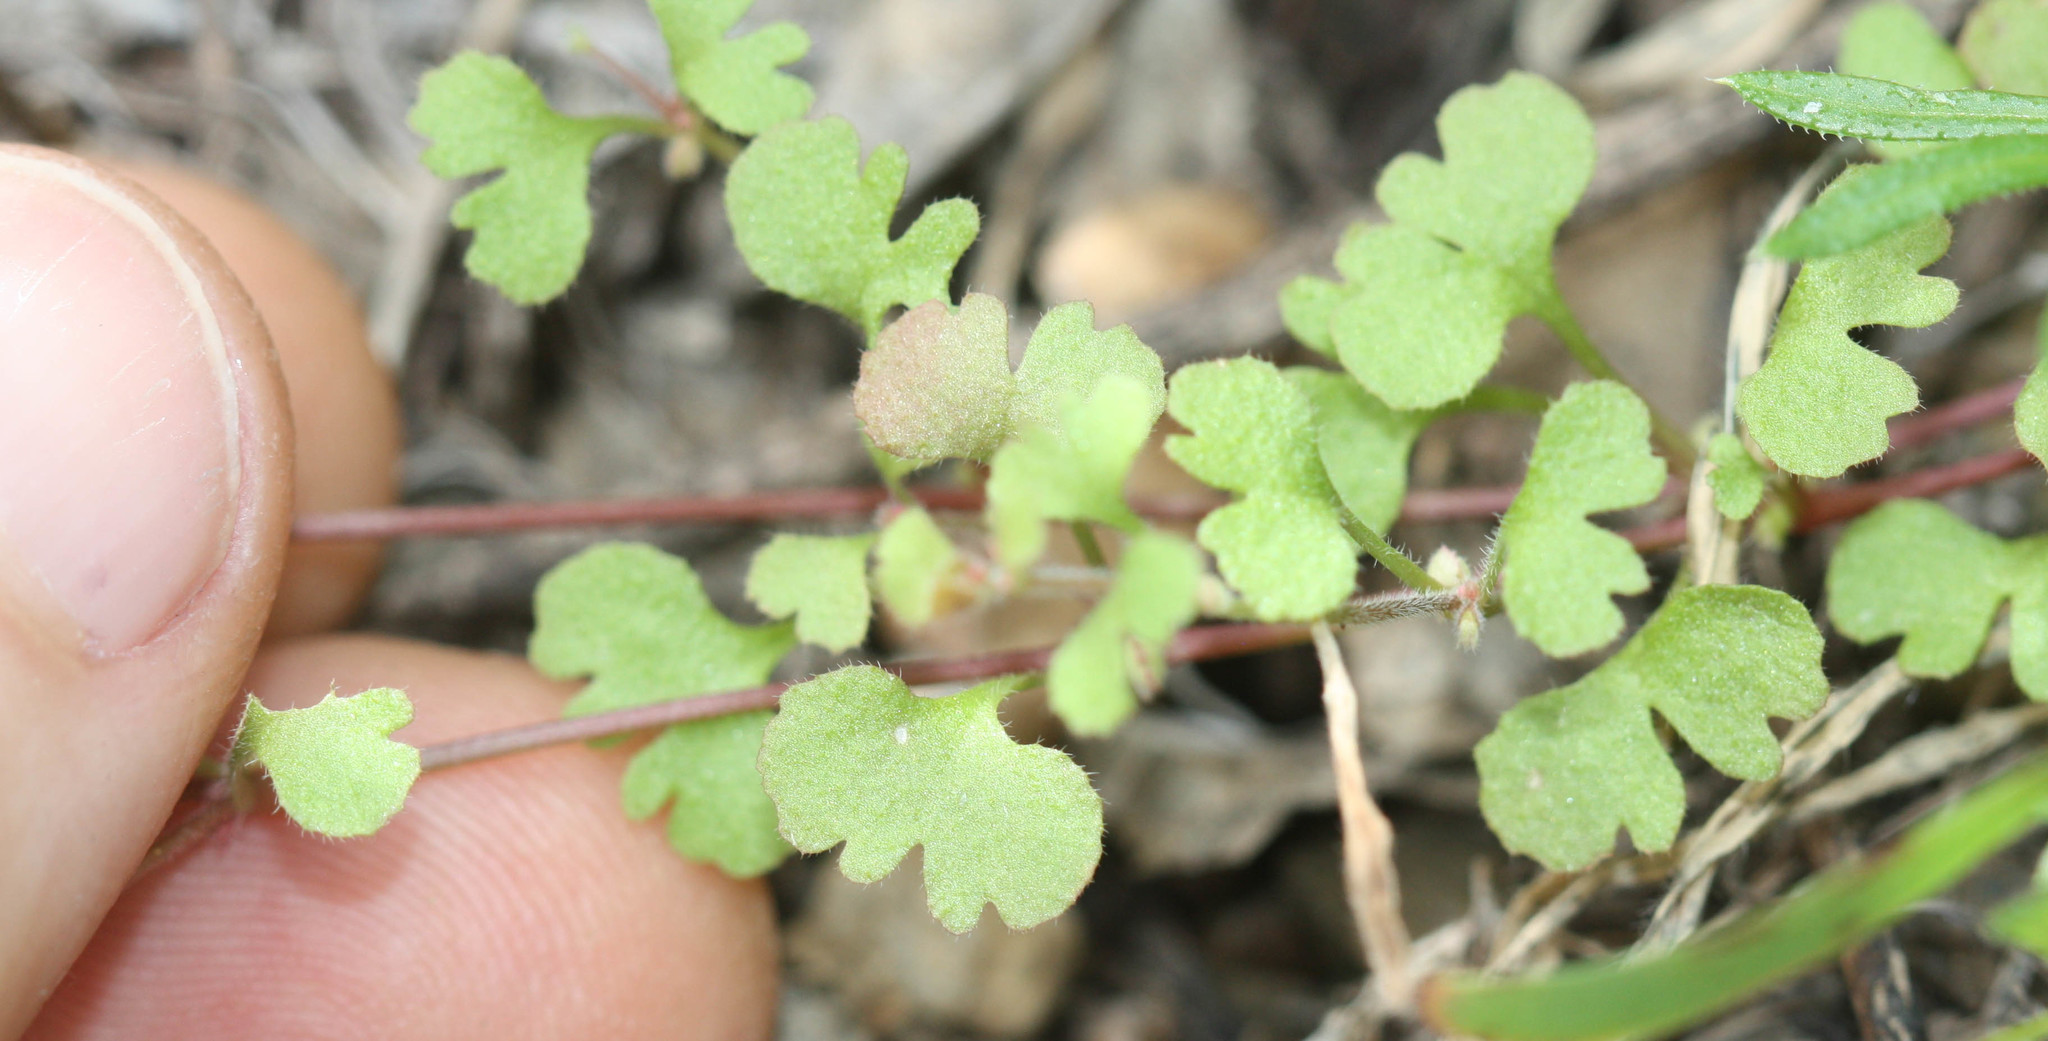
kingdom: Plantae
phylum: Tracheophyta
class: Magnoliopsida
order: Caryophyllales
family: Polygonaceae
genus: Pterostegia
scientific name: Pterostegia drymarioides
